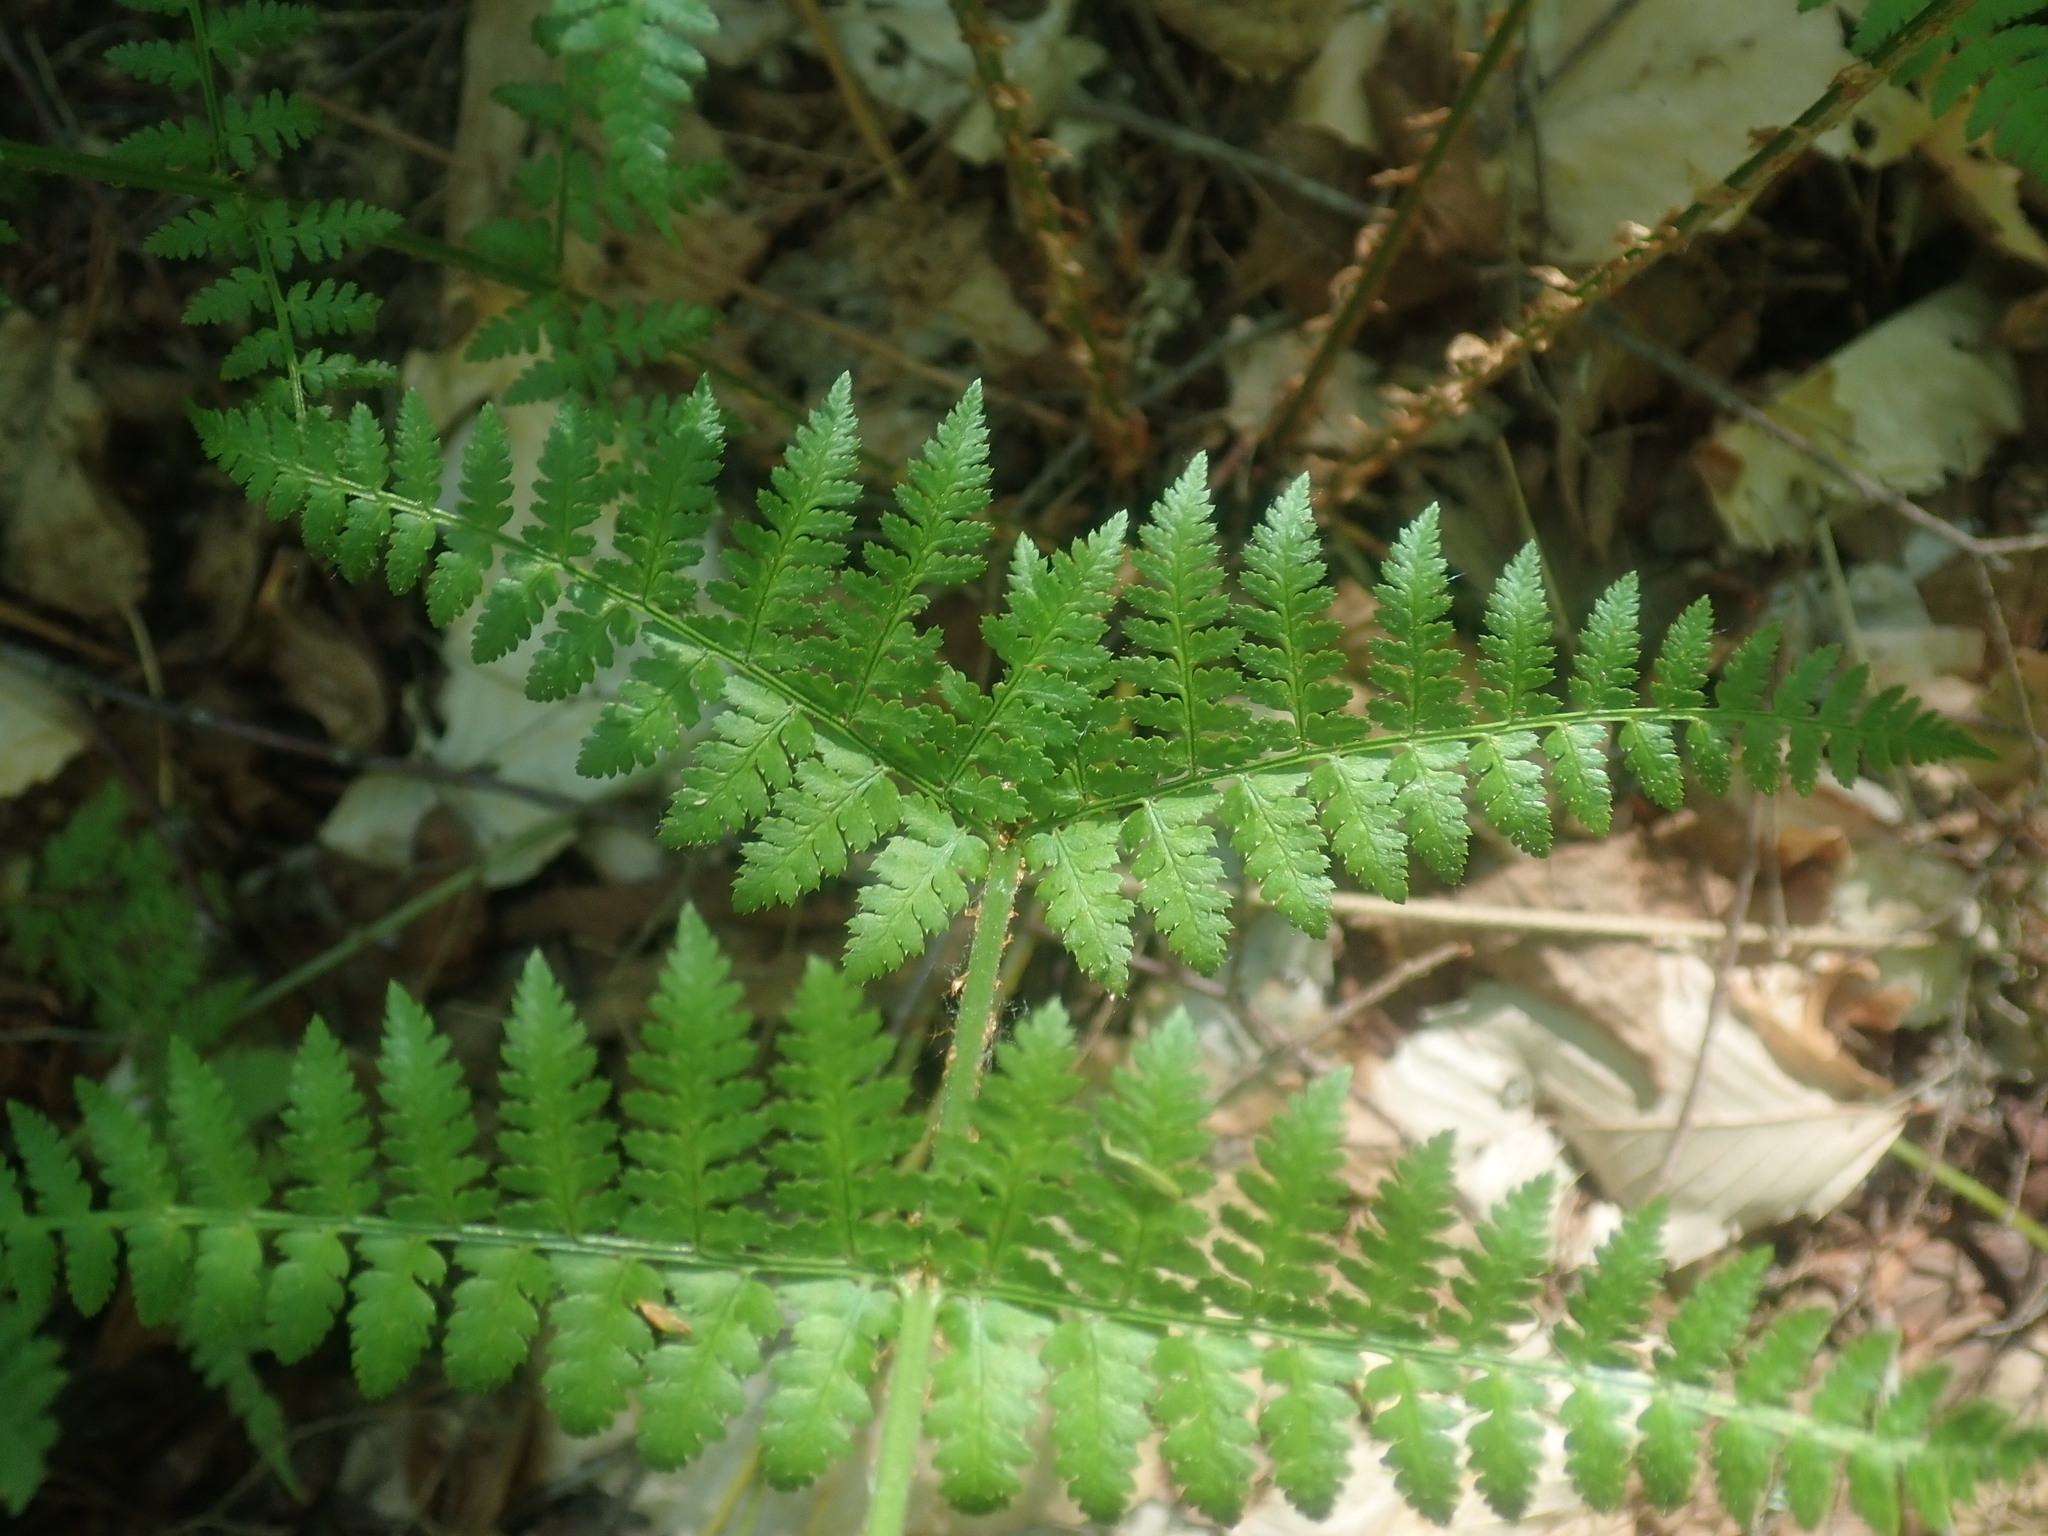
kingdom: Plantae
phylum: Tracheophyta
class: Polypodiopsida
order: Polypodiales
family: Dryopteridaceae
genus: Dryopteris
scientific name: Dryopteris intermedia
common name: Evergreen wood fern
